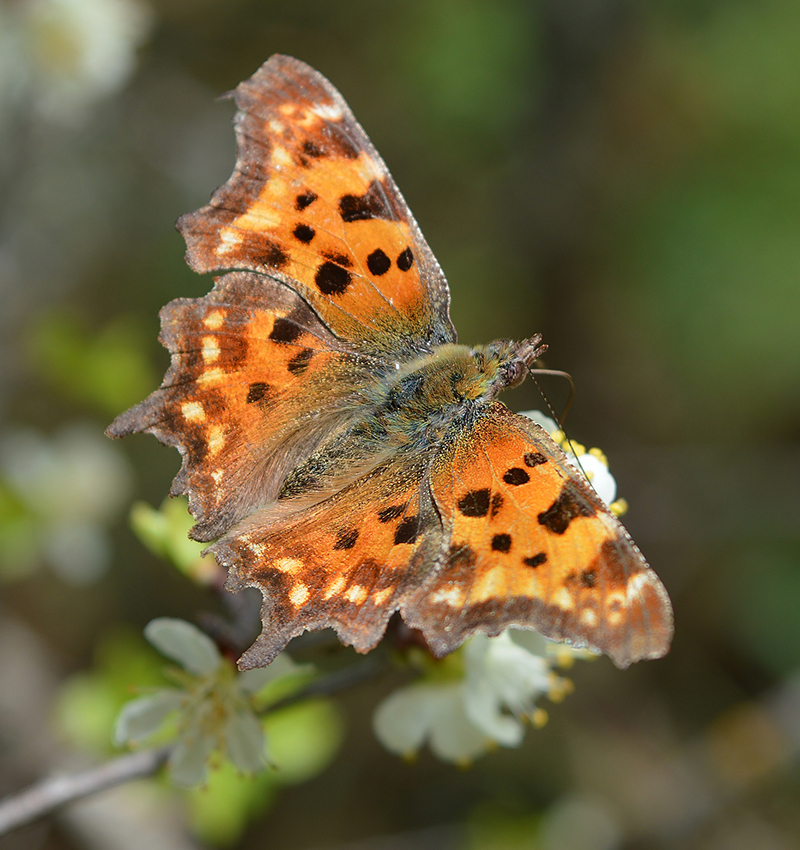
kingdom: Animalia
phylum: Arthropoda
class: Insecta
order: Lepidoptera
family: Nymphalidae
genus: Polygonia
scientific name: Polygonia c-album
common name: Comma
